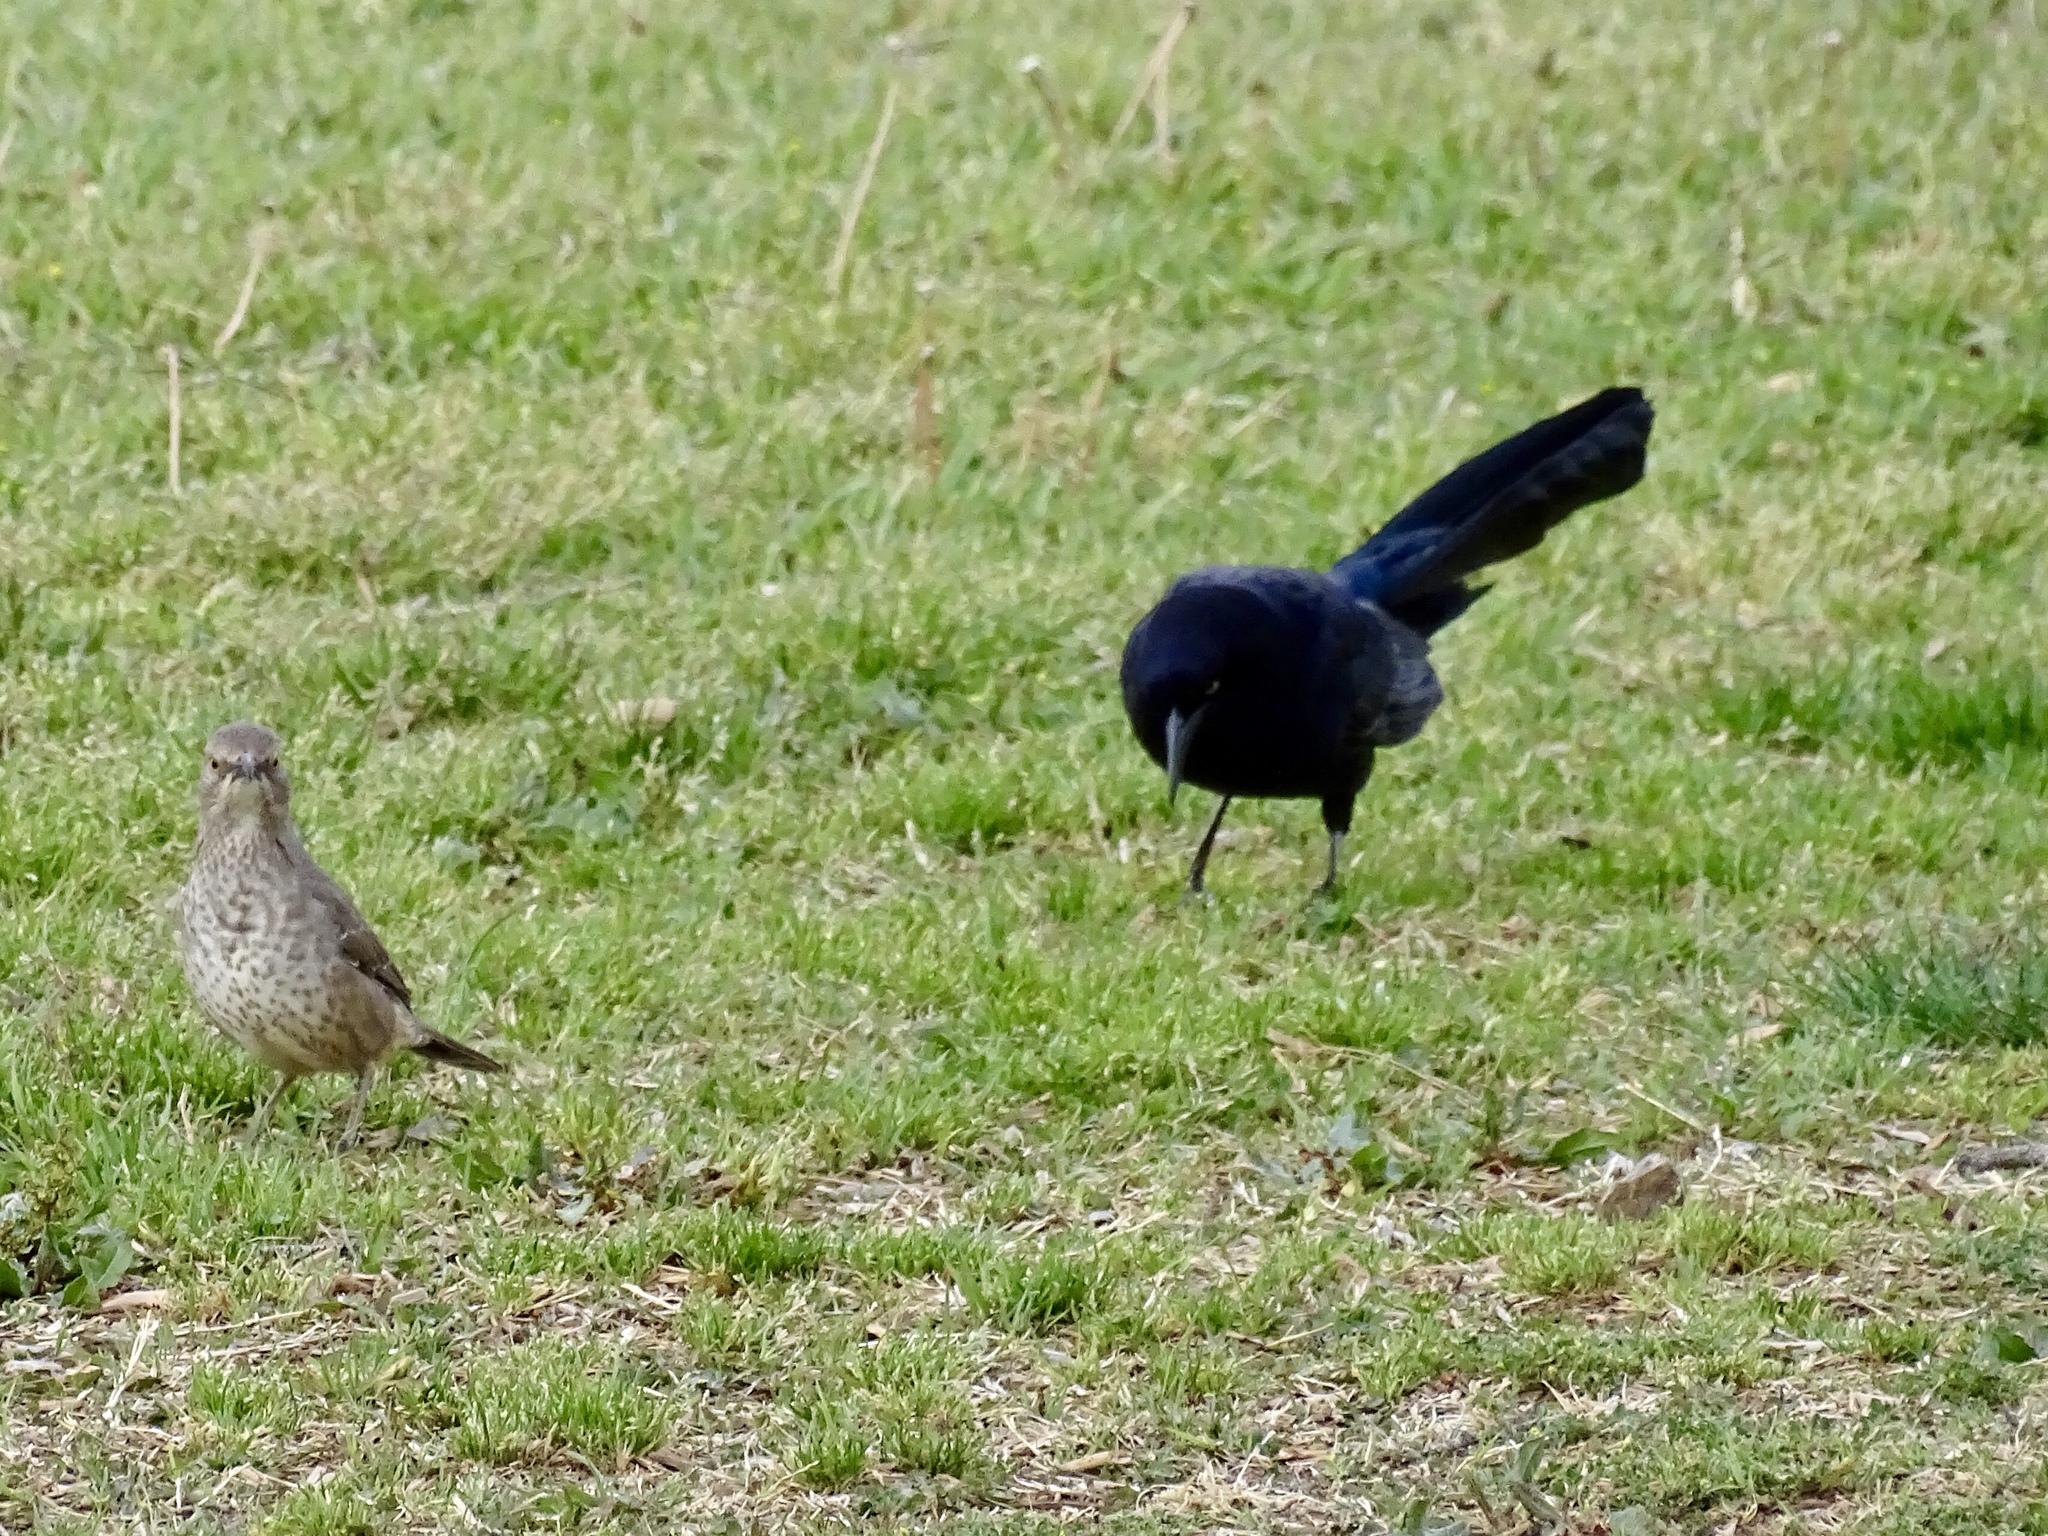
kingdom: Animalia
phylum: Chordata
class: Aves
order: Passeriformes
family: Icteridae
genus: Quiscalus
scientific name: Quiscalus mexicanus
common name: Great-tailed grackle
